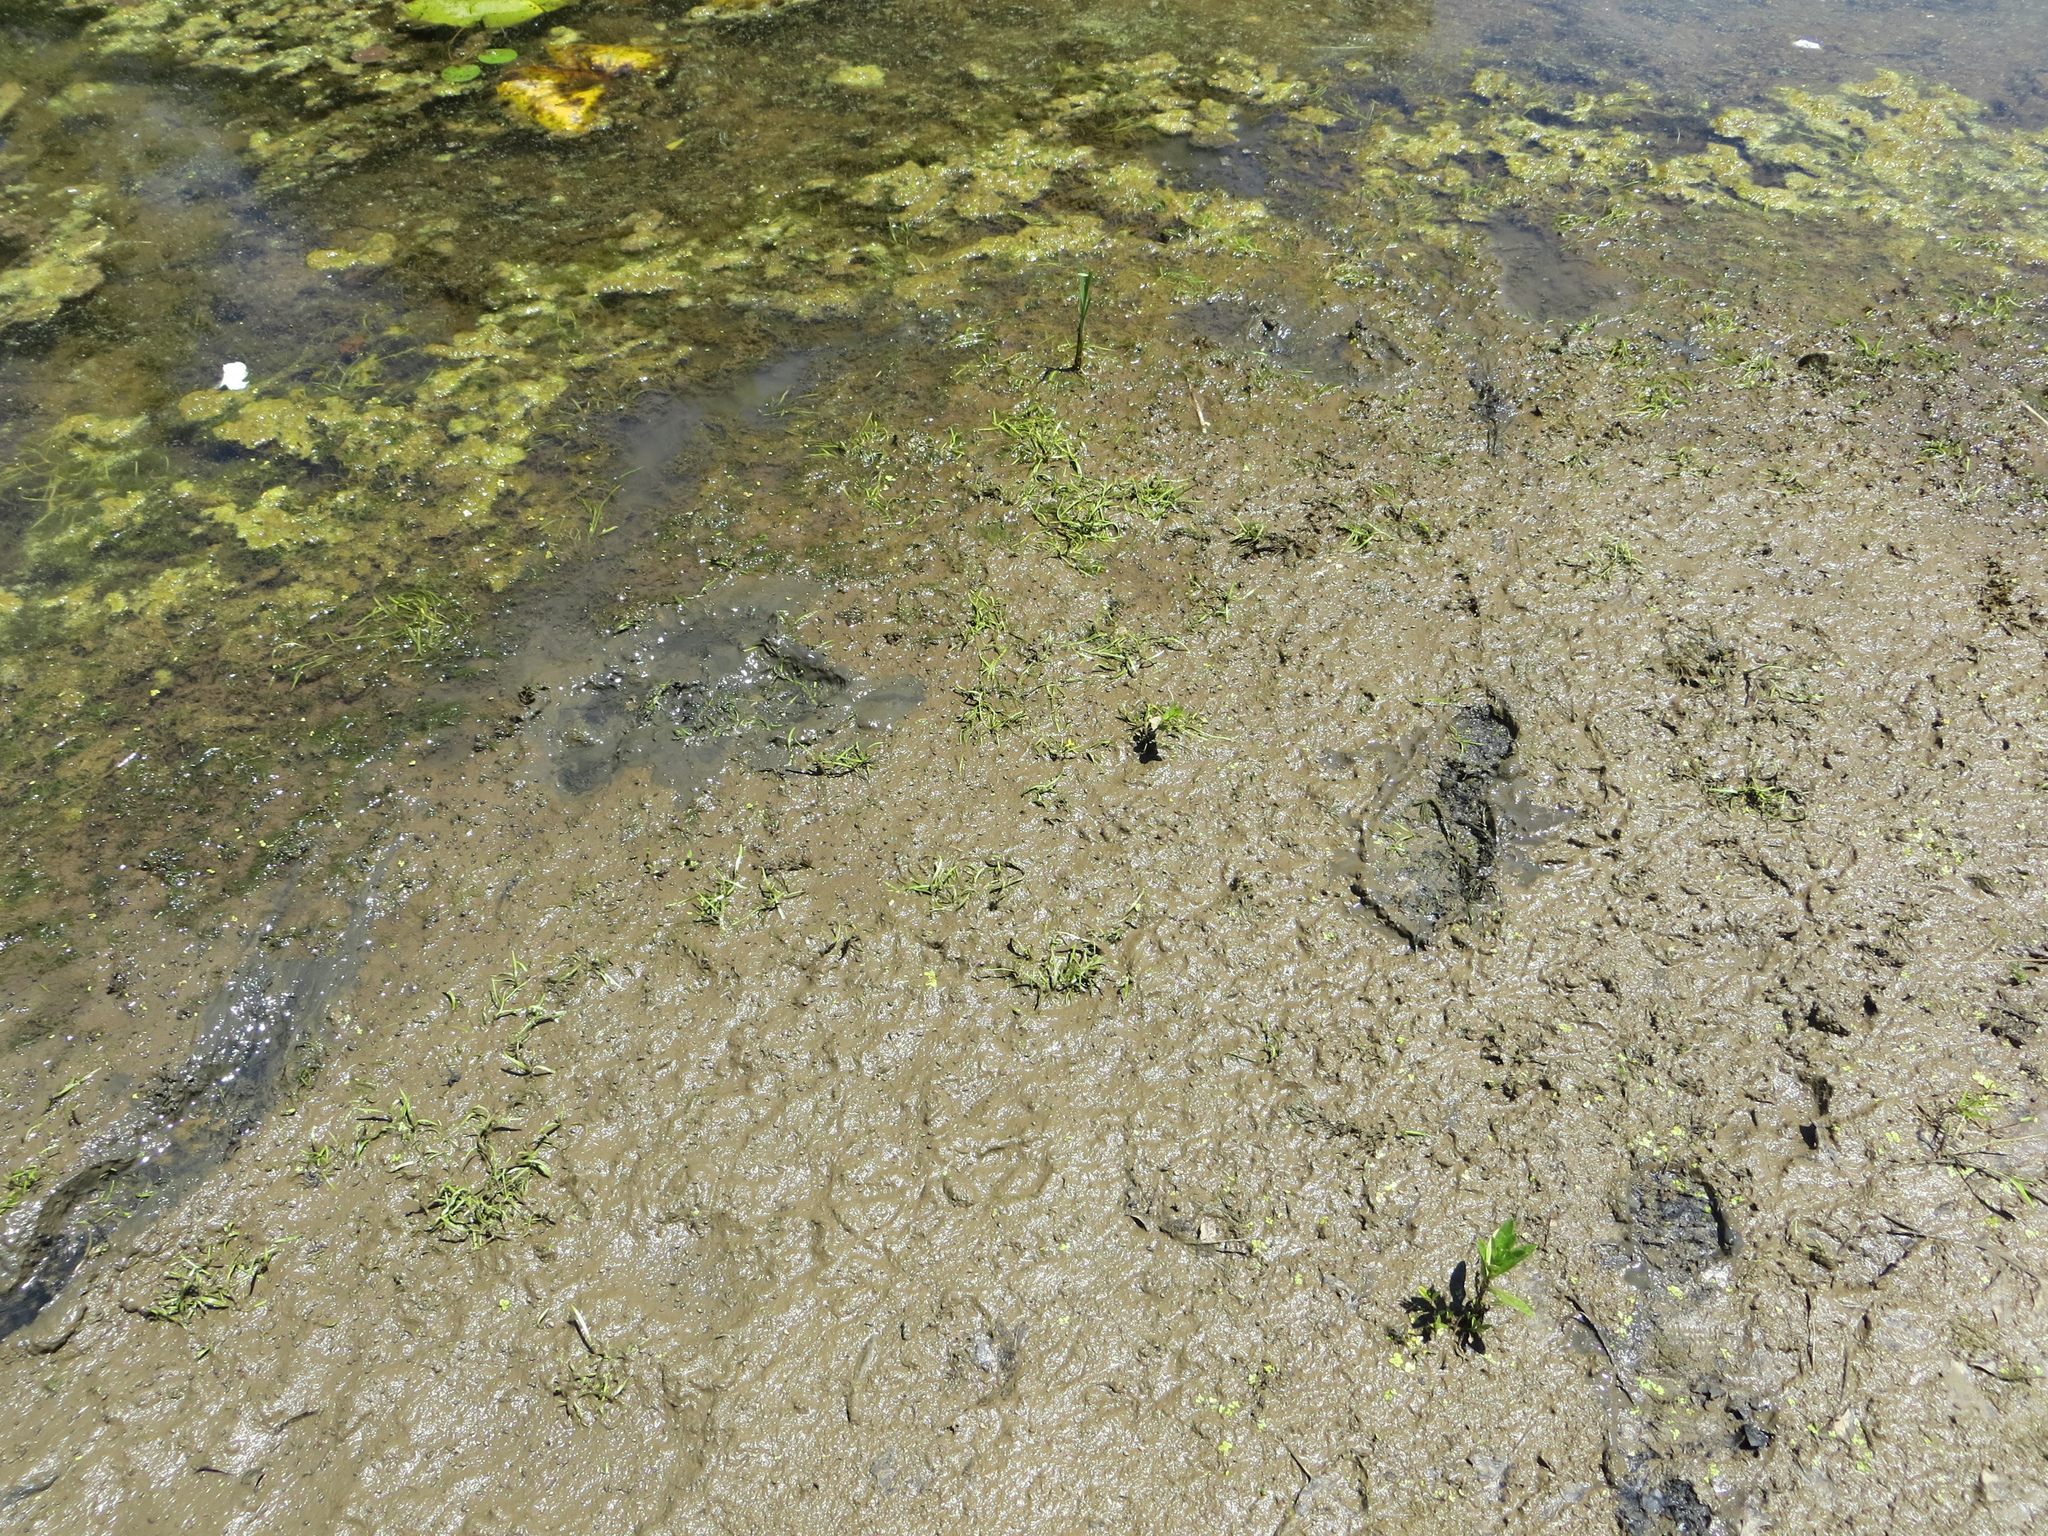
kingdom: Plantae
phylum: Tracheophyta
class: Liliopsida
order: Commelinales
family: Pontederiaceae
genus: Heteranthera
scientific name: Heteranthera dubia
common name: Grass-leaved mud plantain
